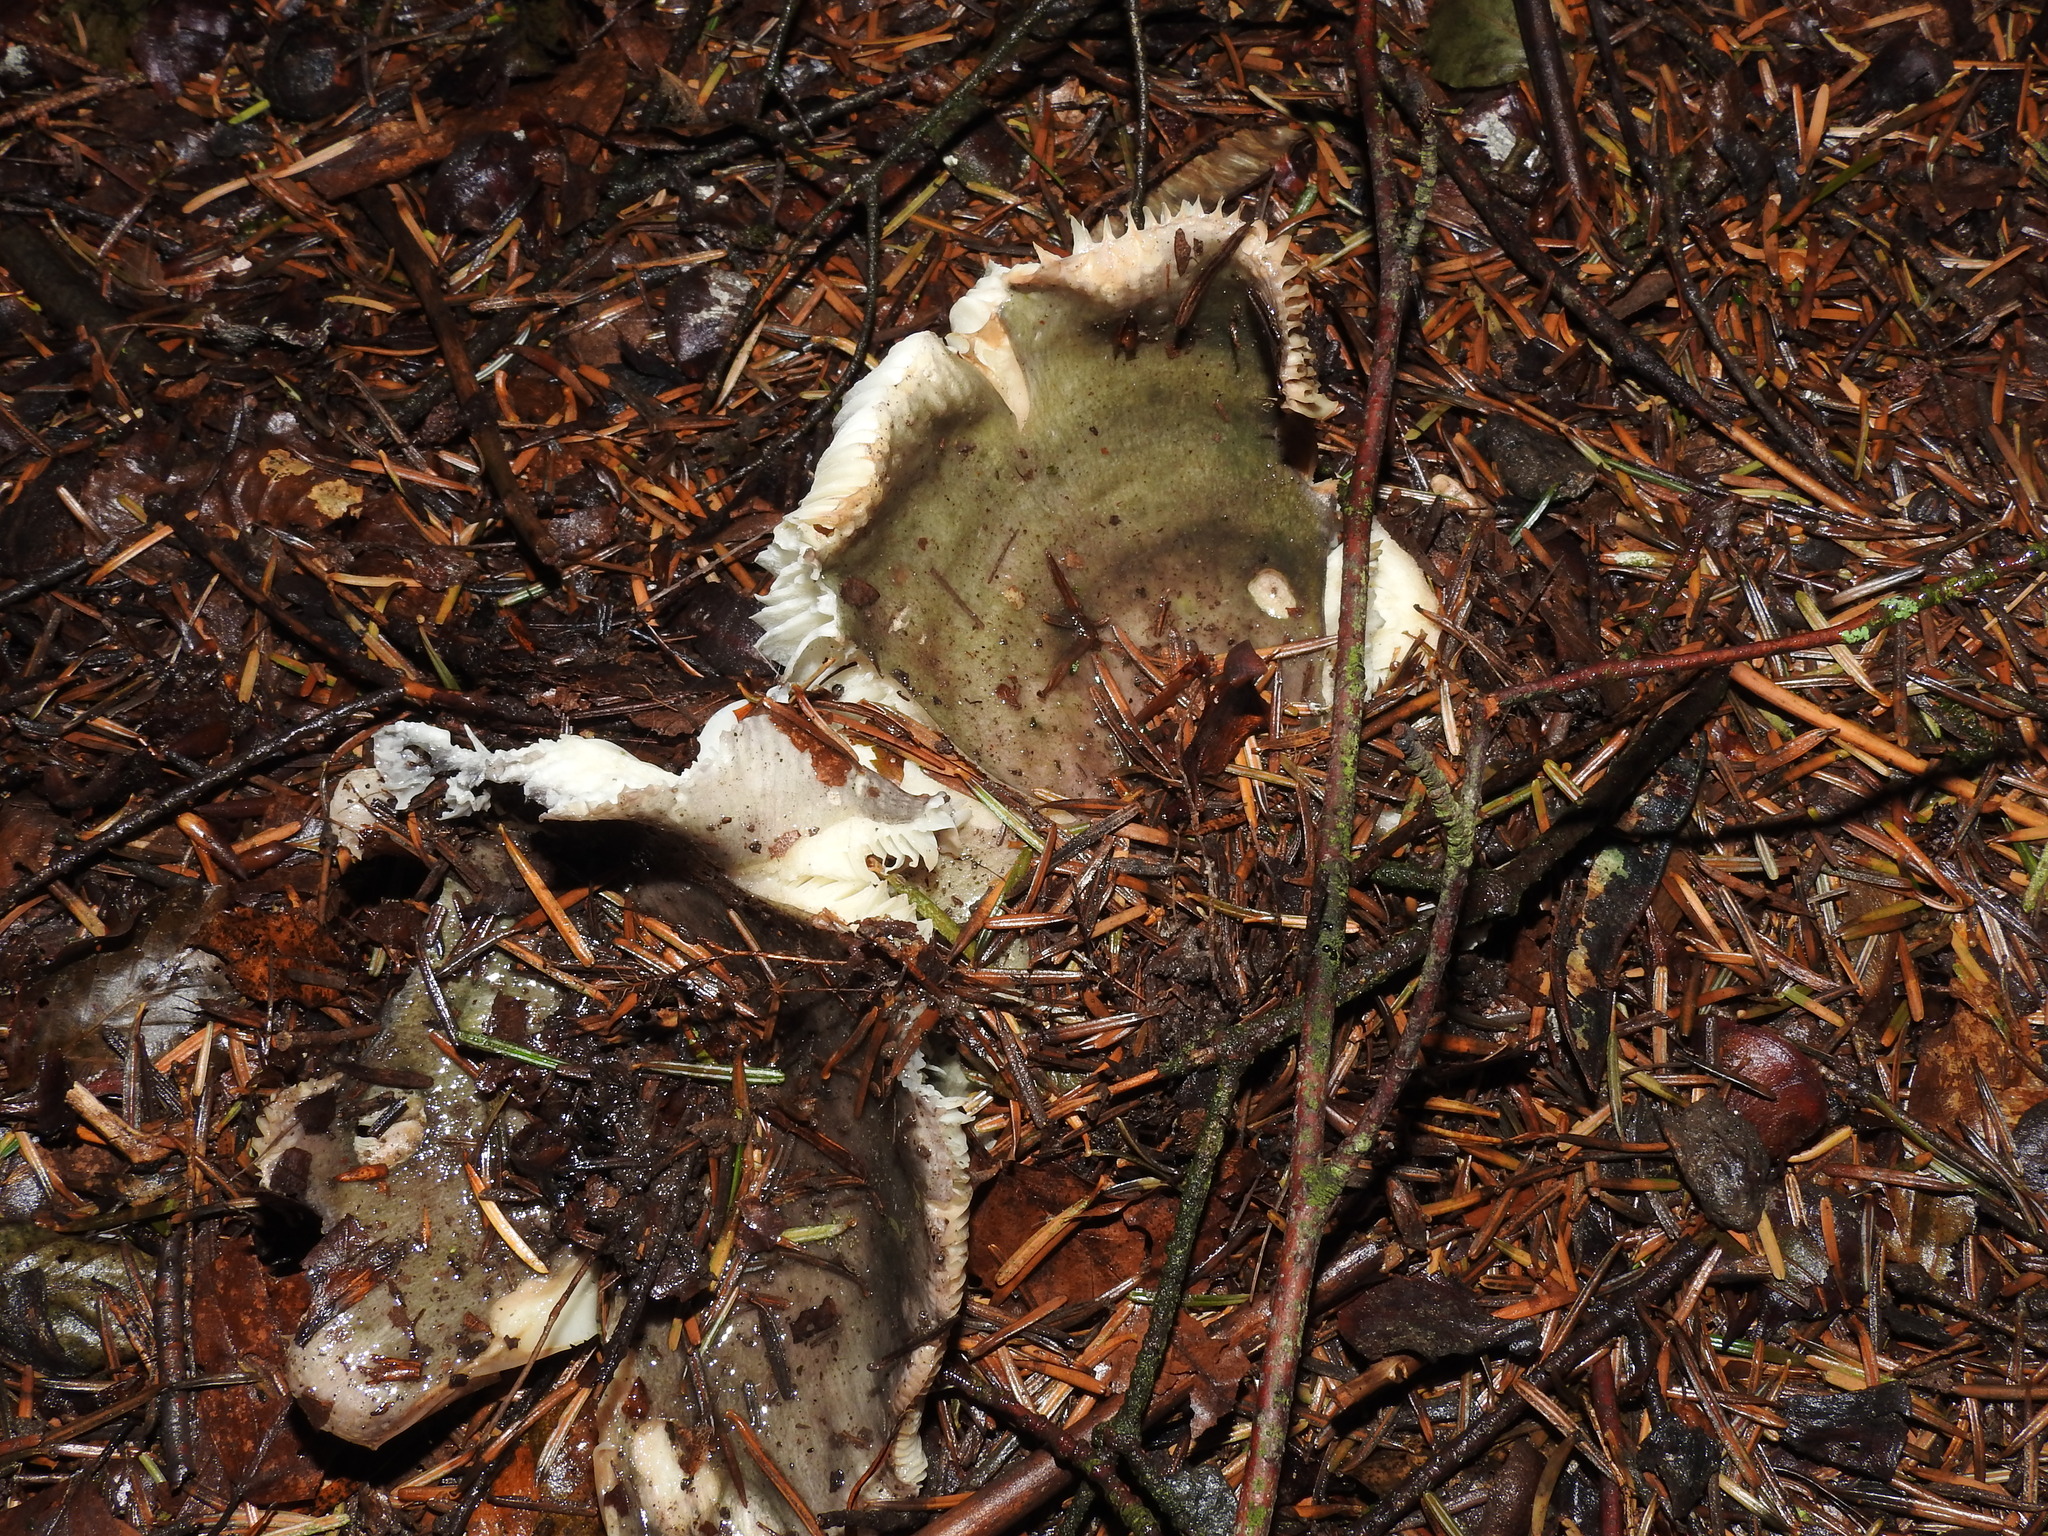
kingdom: Fungi
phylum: Basidiomycota
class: Agaricomycetes
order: Russulales
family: Russulaceae
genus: Russula
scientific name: Russula heterophylla
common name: Greasy green brittlegill
